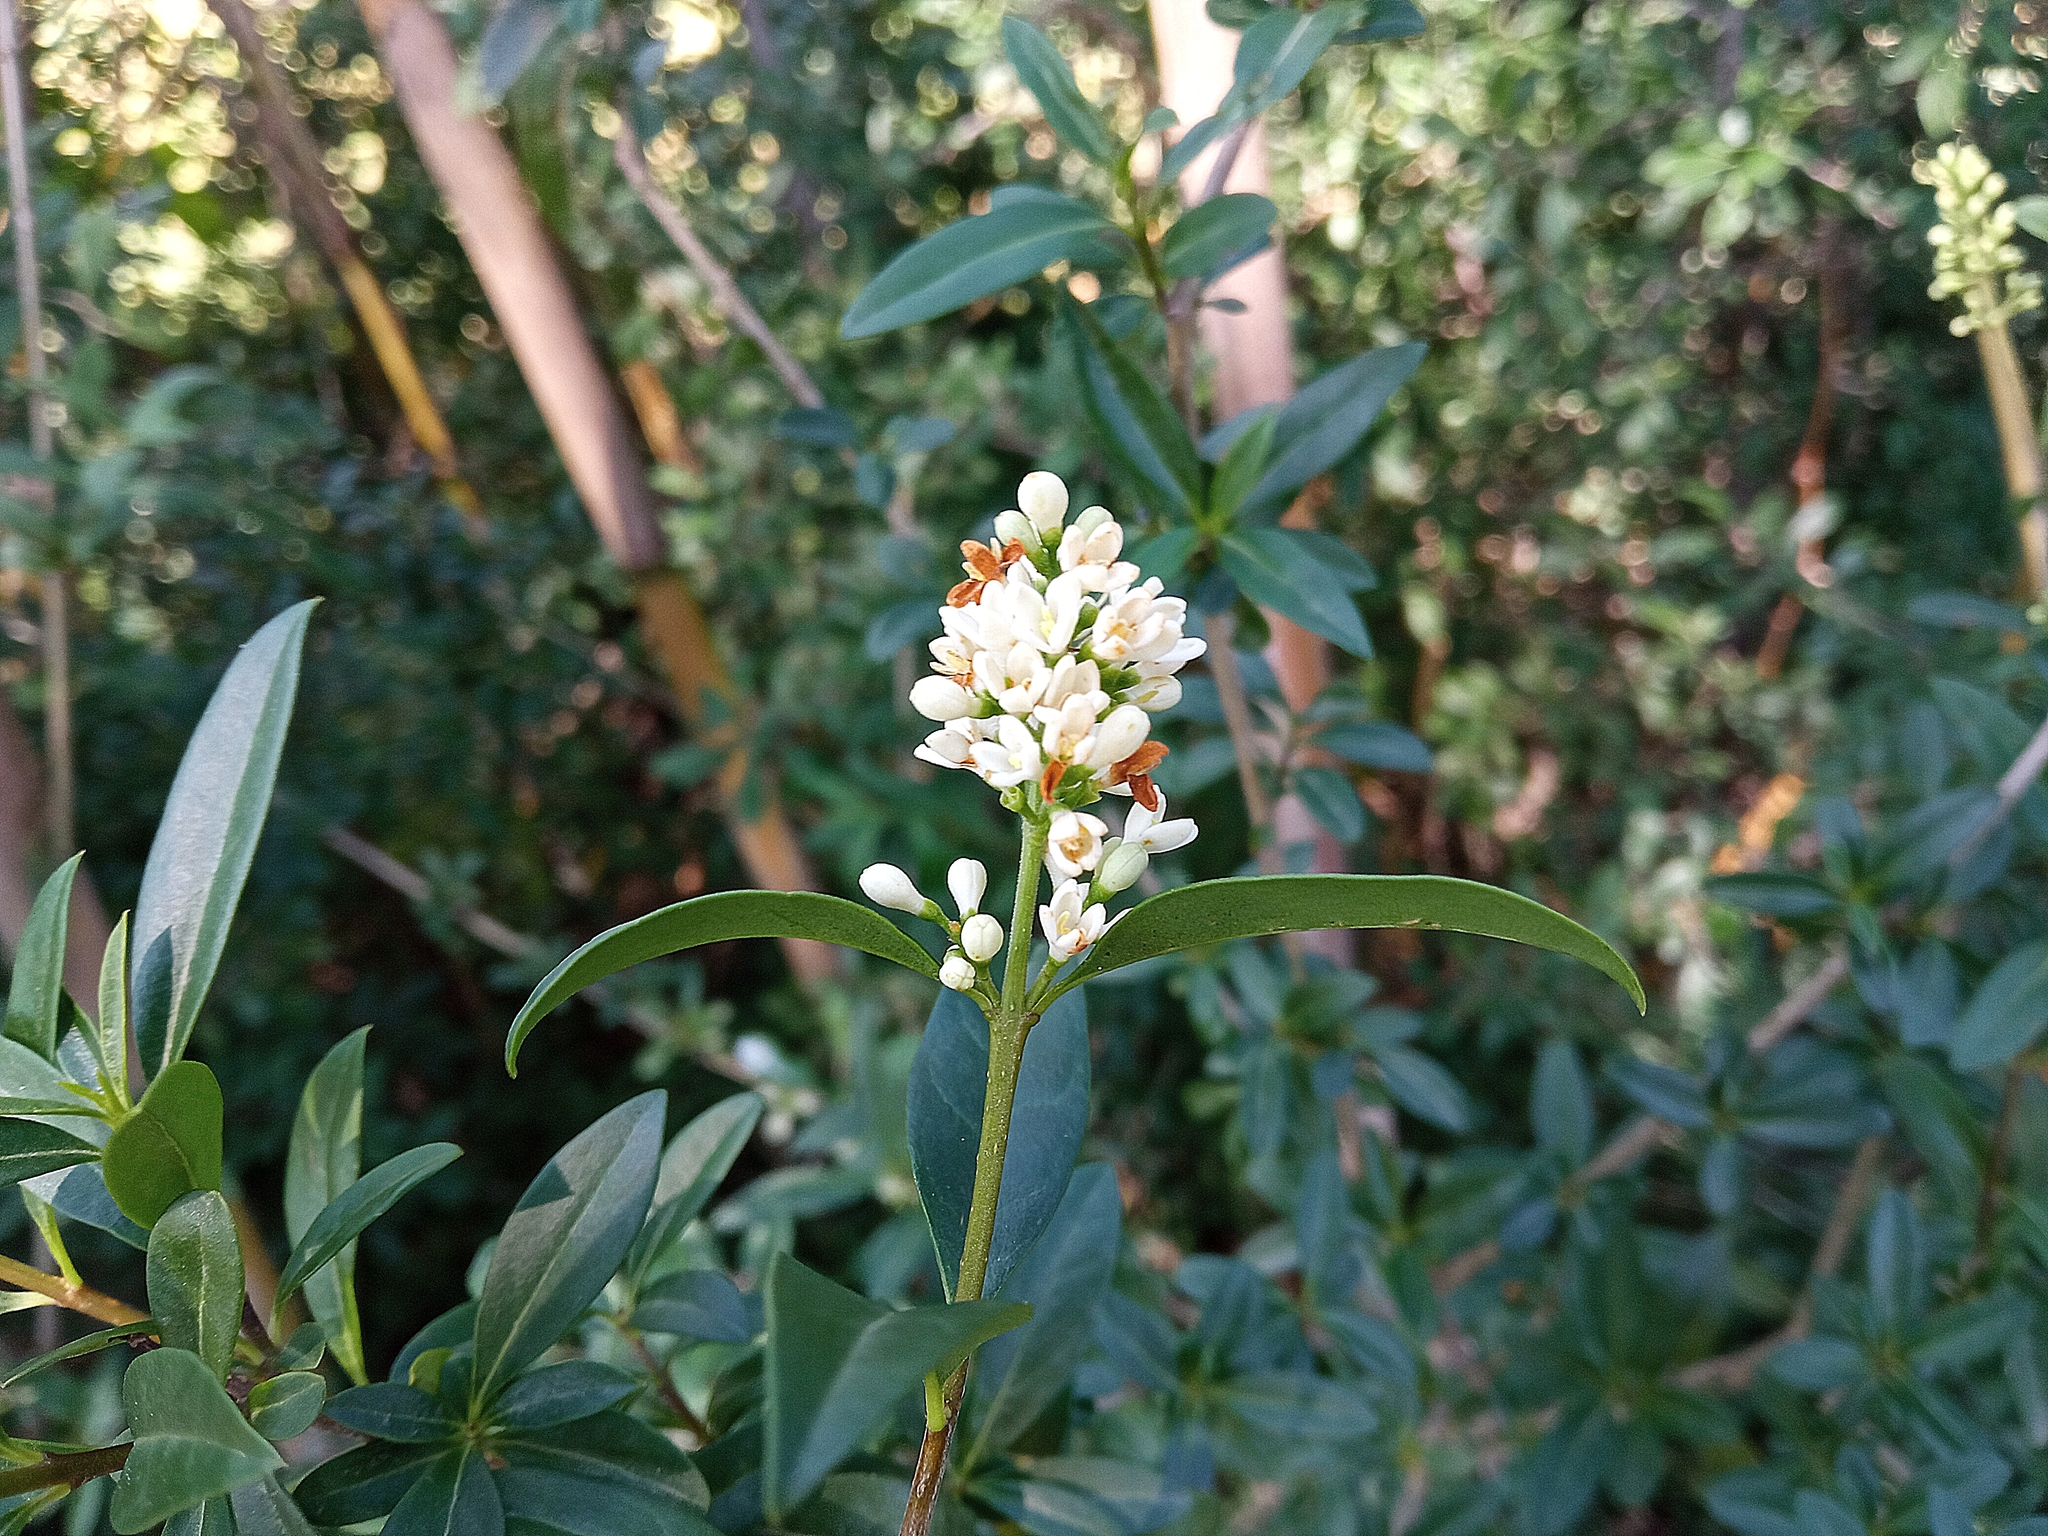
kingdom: Plantae
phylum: Tracheophyta
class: Magnoliopsida
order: Lamiales
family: Oleaceae
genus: Ligustrum
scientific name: Ligustrum vulgare
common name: Wild privet
